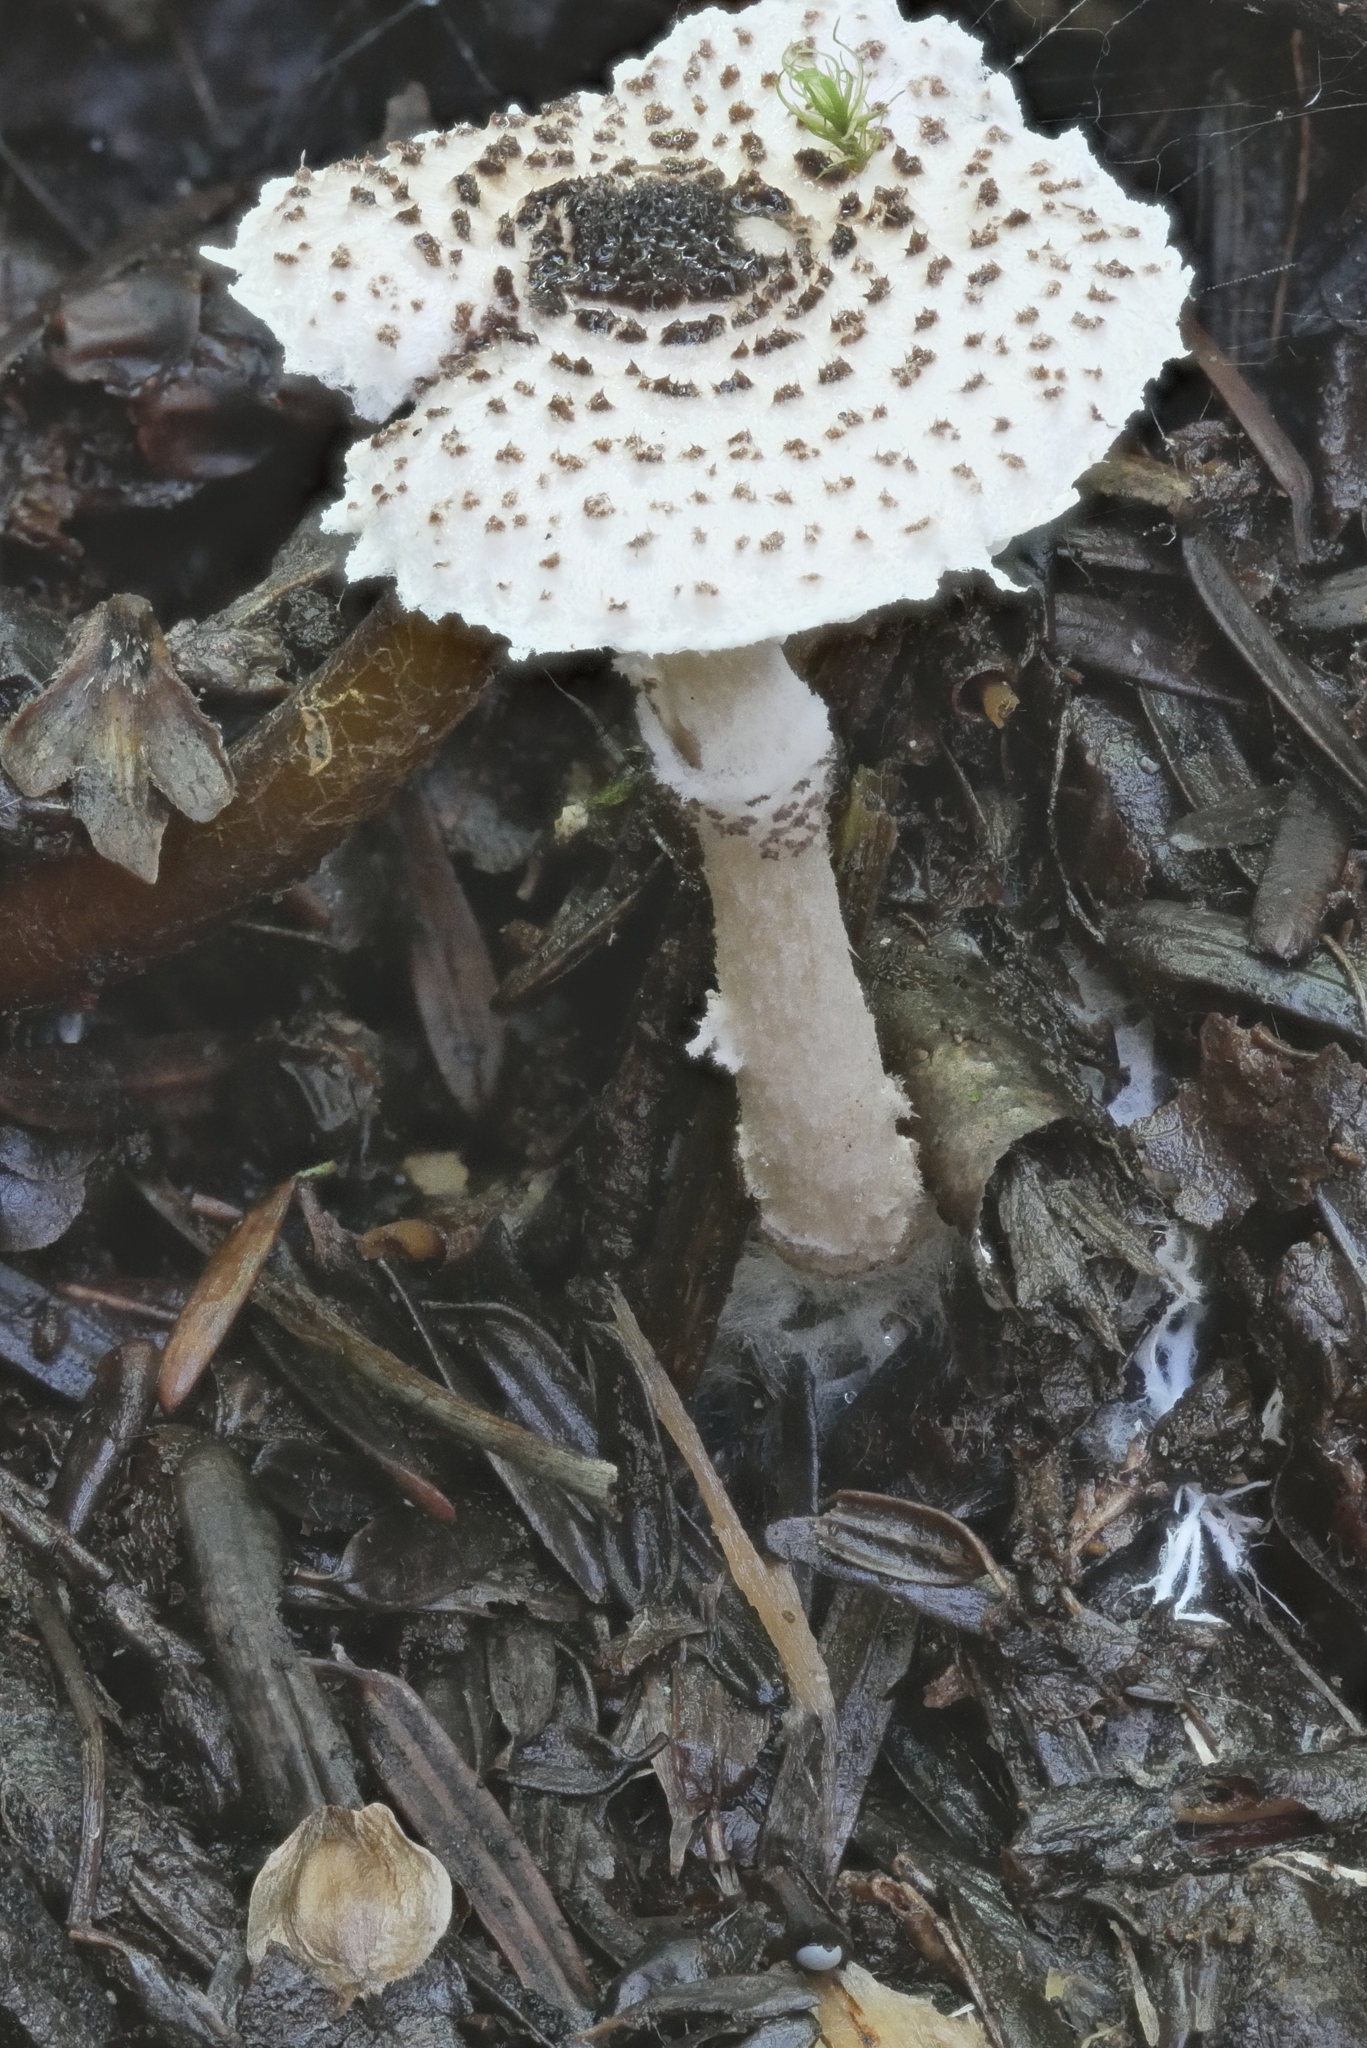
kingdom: Fungi
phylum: Basidiomycota
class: Agaricomycetes
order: Agaricales
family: Agaricaceae
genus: Lepiota
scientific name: Lepiota felina
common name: Cat dapperling
